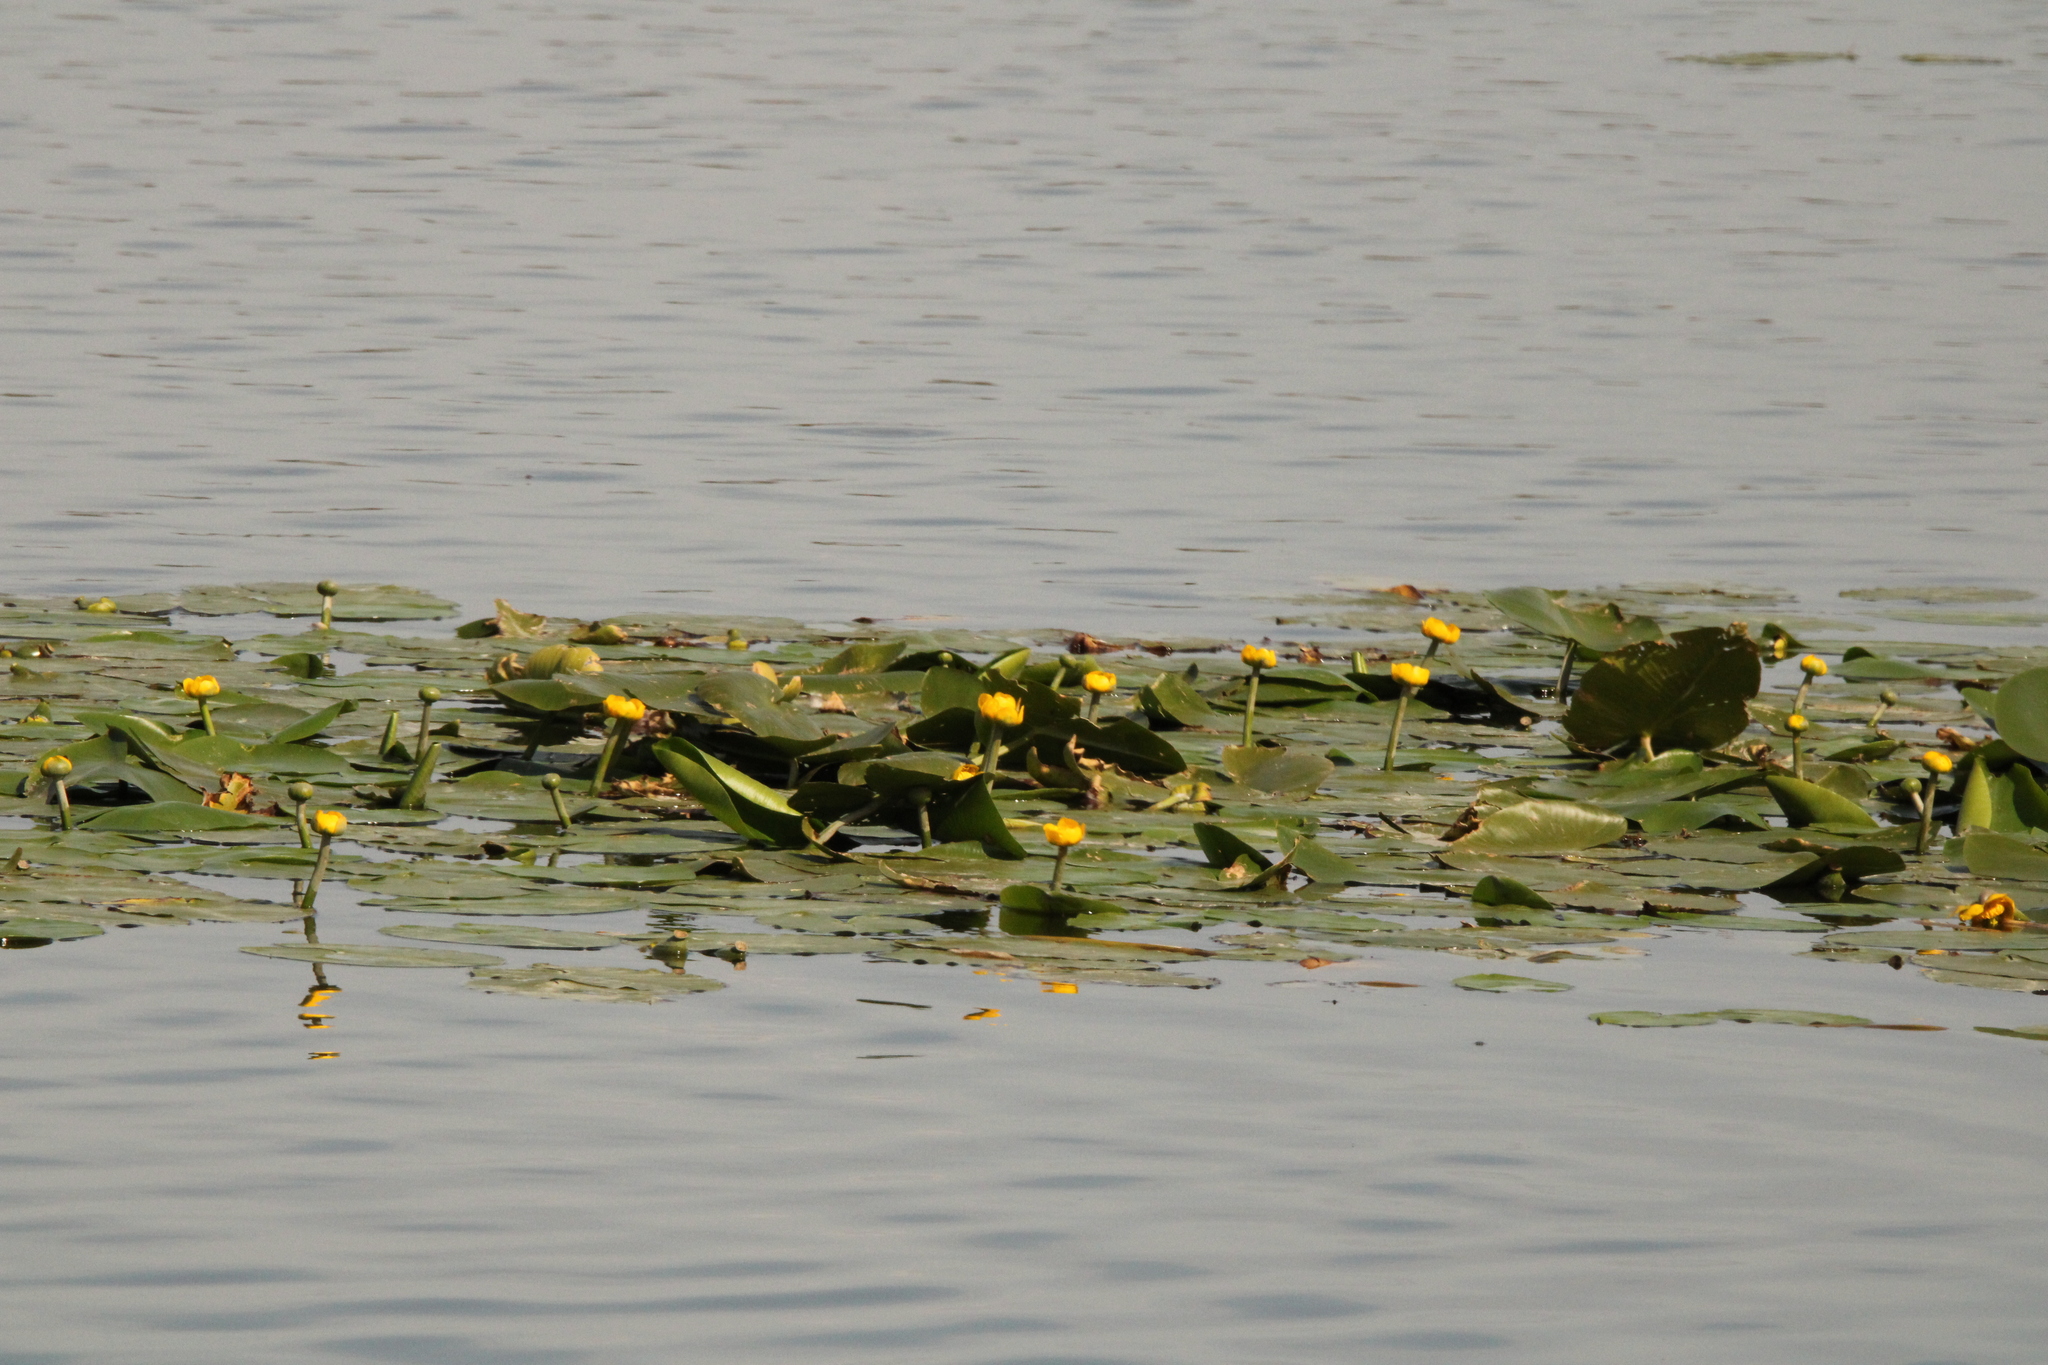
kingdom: Plantae
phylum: Tracheophyta
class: Magnoliopsida
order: Nymphaeales
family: Nymphaeaceae
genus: Nuphar
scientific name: Nuphar lutea
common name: Yellow water-lily
